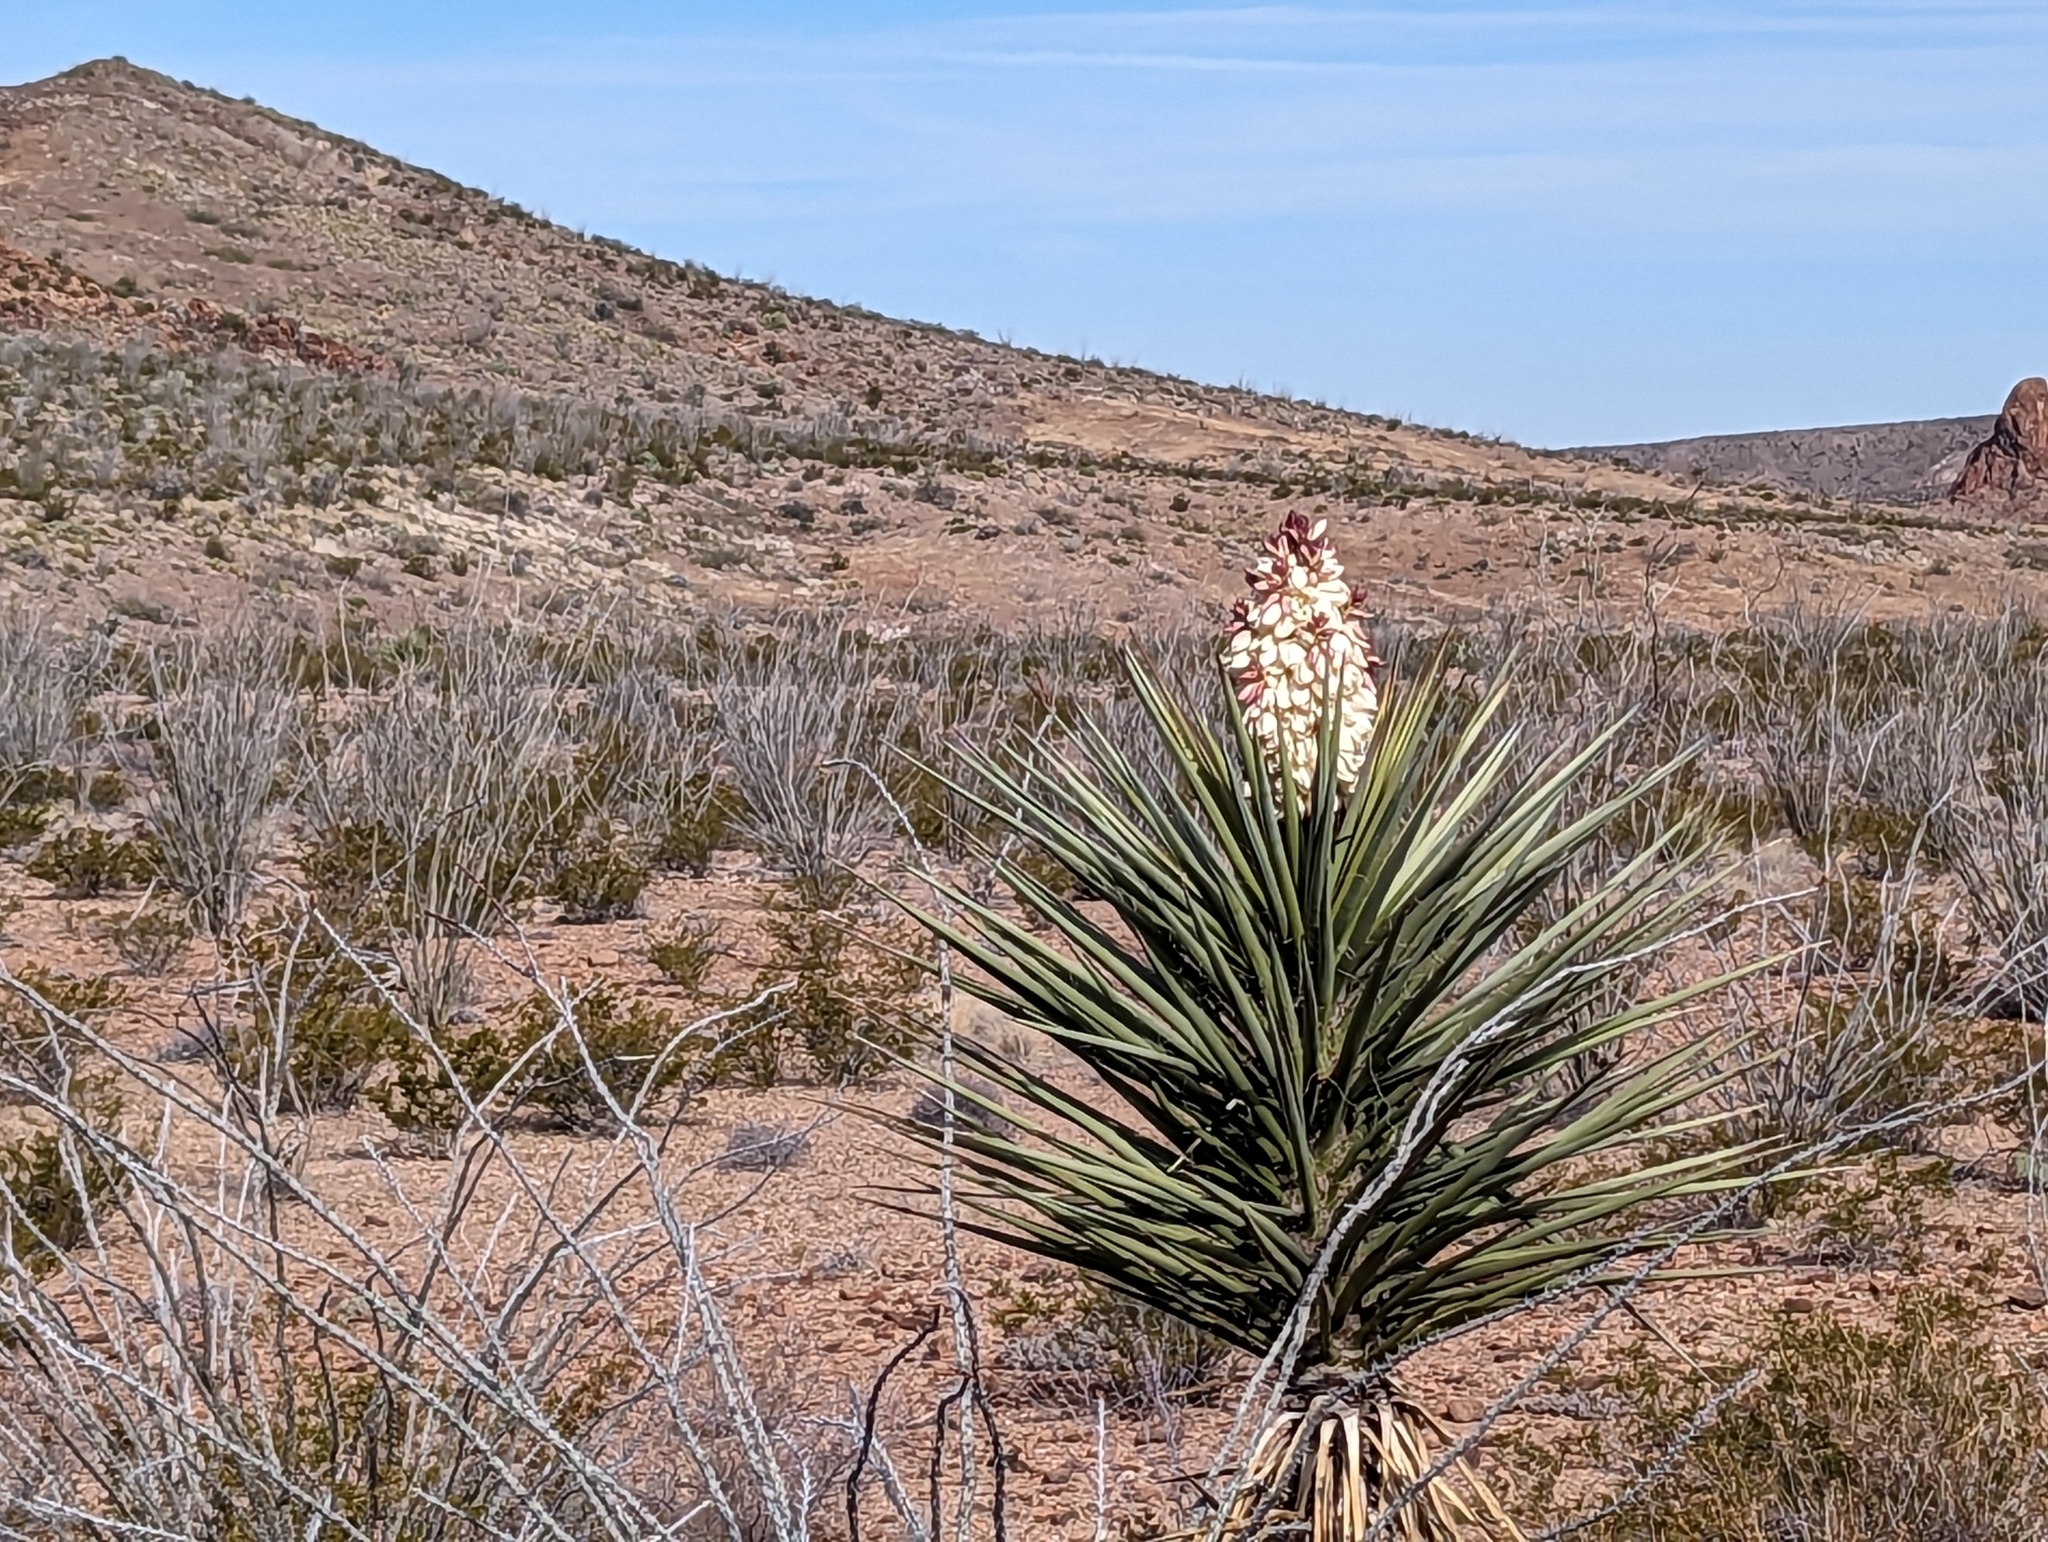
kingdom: Plantae
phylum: Tracheophyta
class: Liliopsida
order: Asparagales
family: Asparagaceae
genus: Yucca
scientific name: Yucca treculiana
